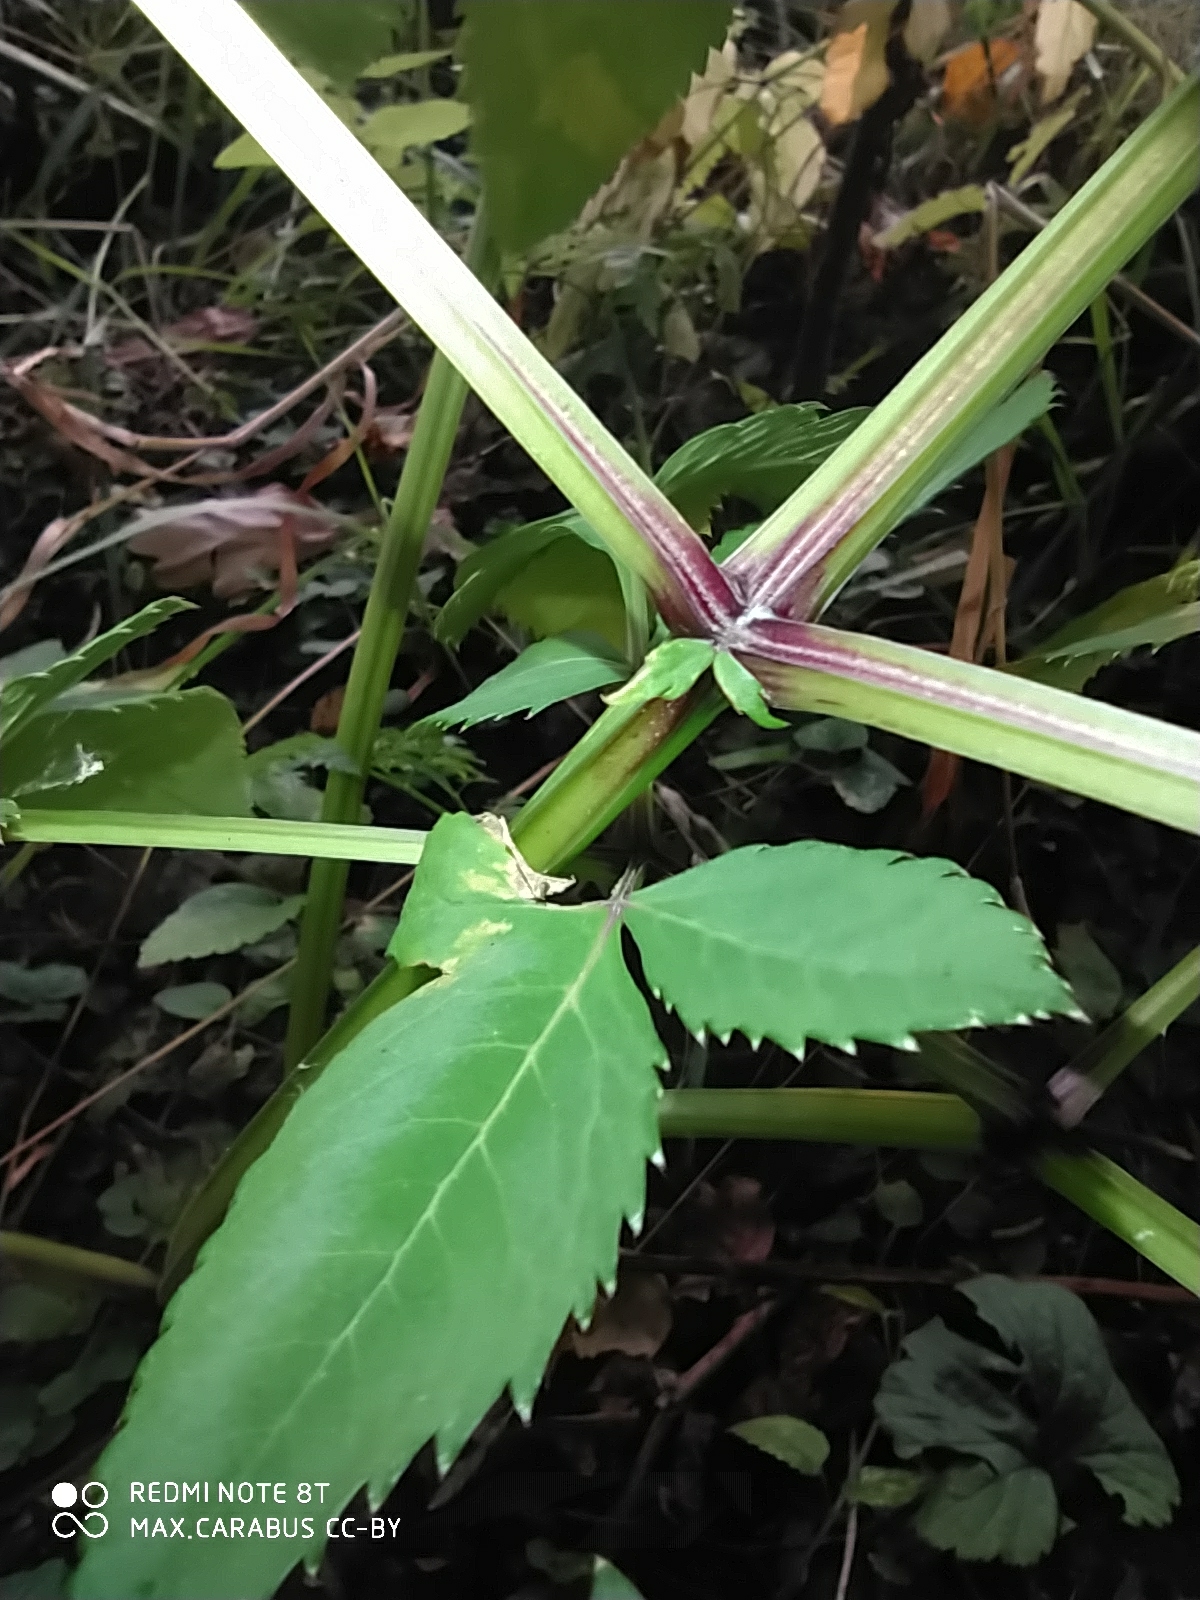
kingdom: Plantae
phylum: Tracheophyta
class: Magnoliopsida
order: Apiales
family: Apiaceae
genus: Angelica
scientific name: Angelica sylvestris
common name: Wild angelica
